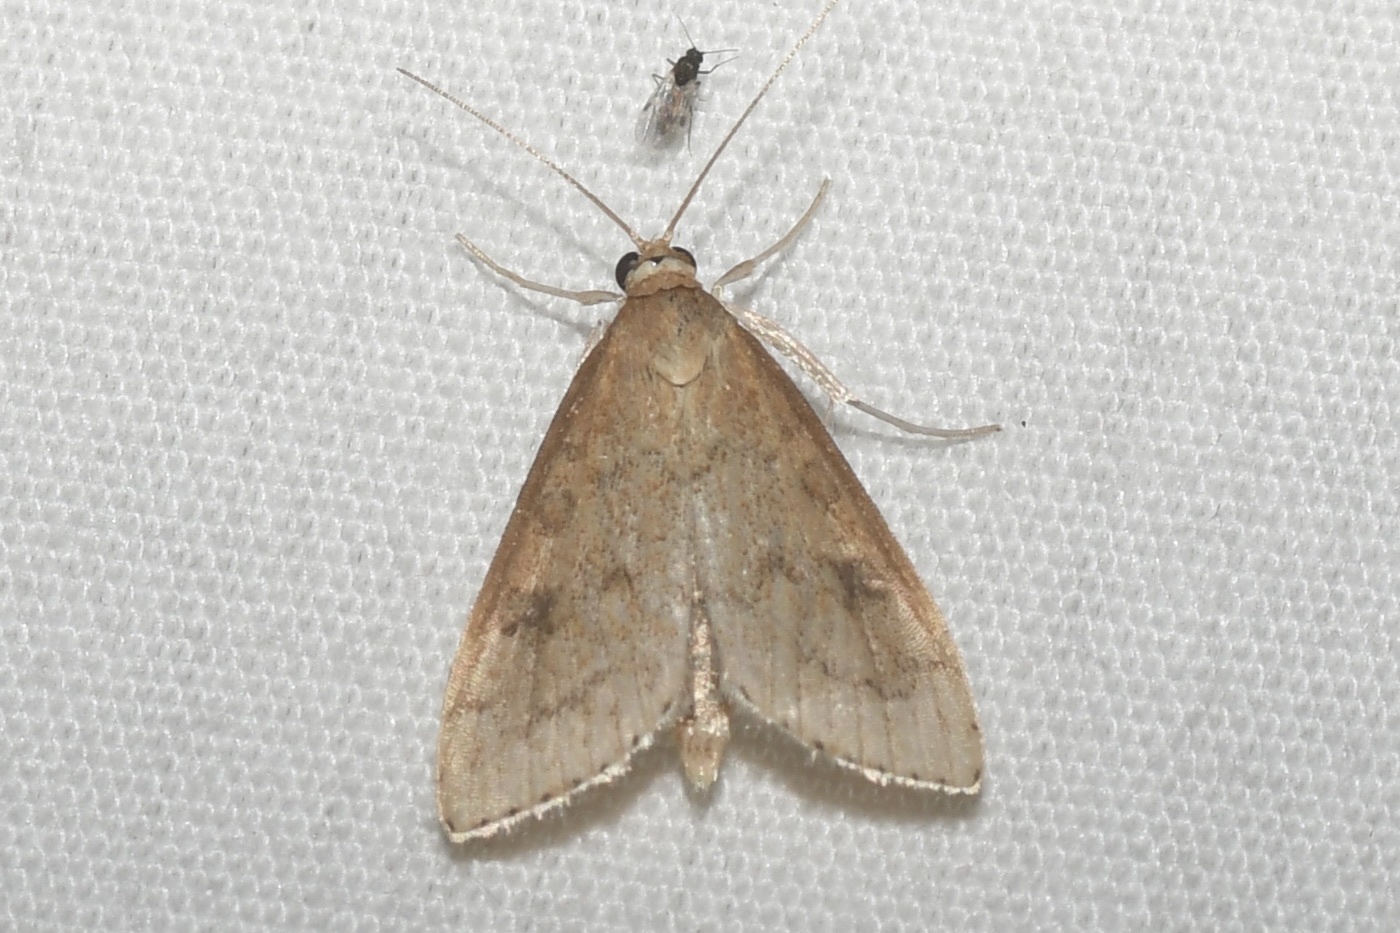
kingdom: Animalia
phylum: Arthropoda
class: Insecta
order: Lepidoptera
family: Crambidae
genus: Udea
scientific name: Udea rubigalis
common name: Celery leaftier moth
